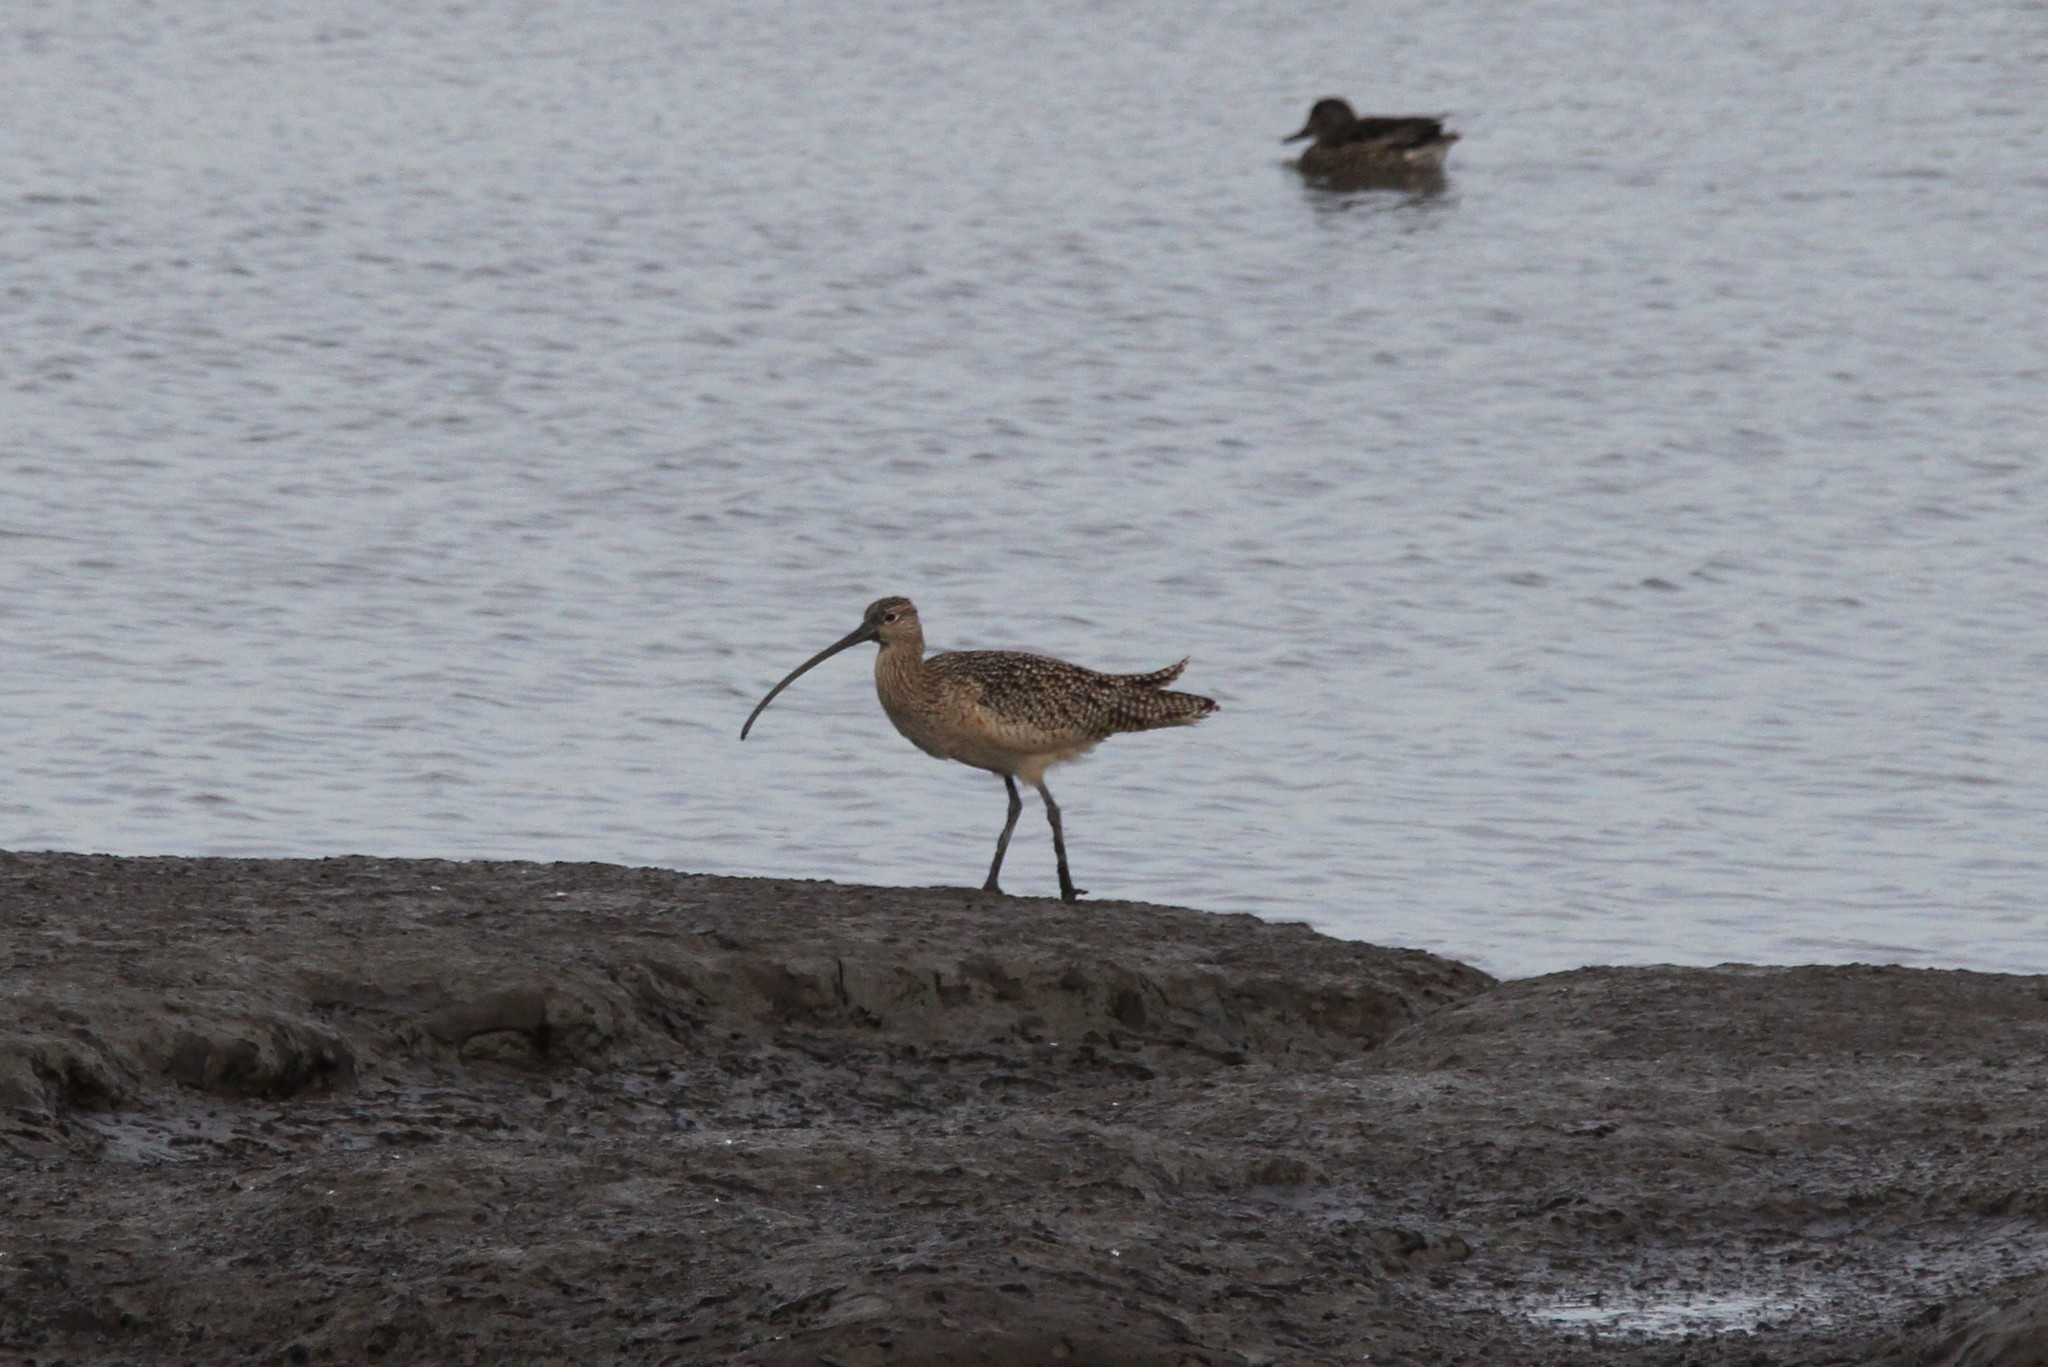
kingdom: Animalia
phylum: Chordata
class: Aves
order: Charadriiformes
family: Scolopacidae
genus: Numenius
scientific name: Numenius americanus
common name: Long-billed curlew
